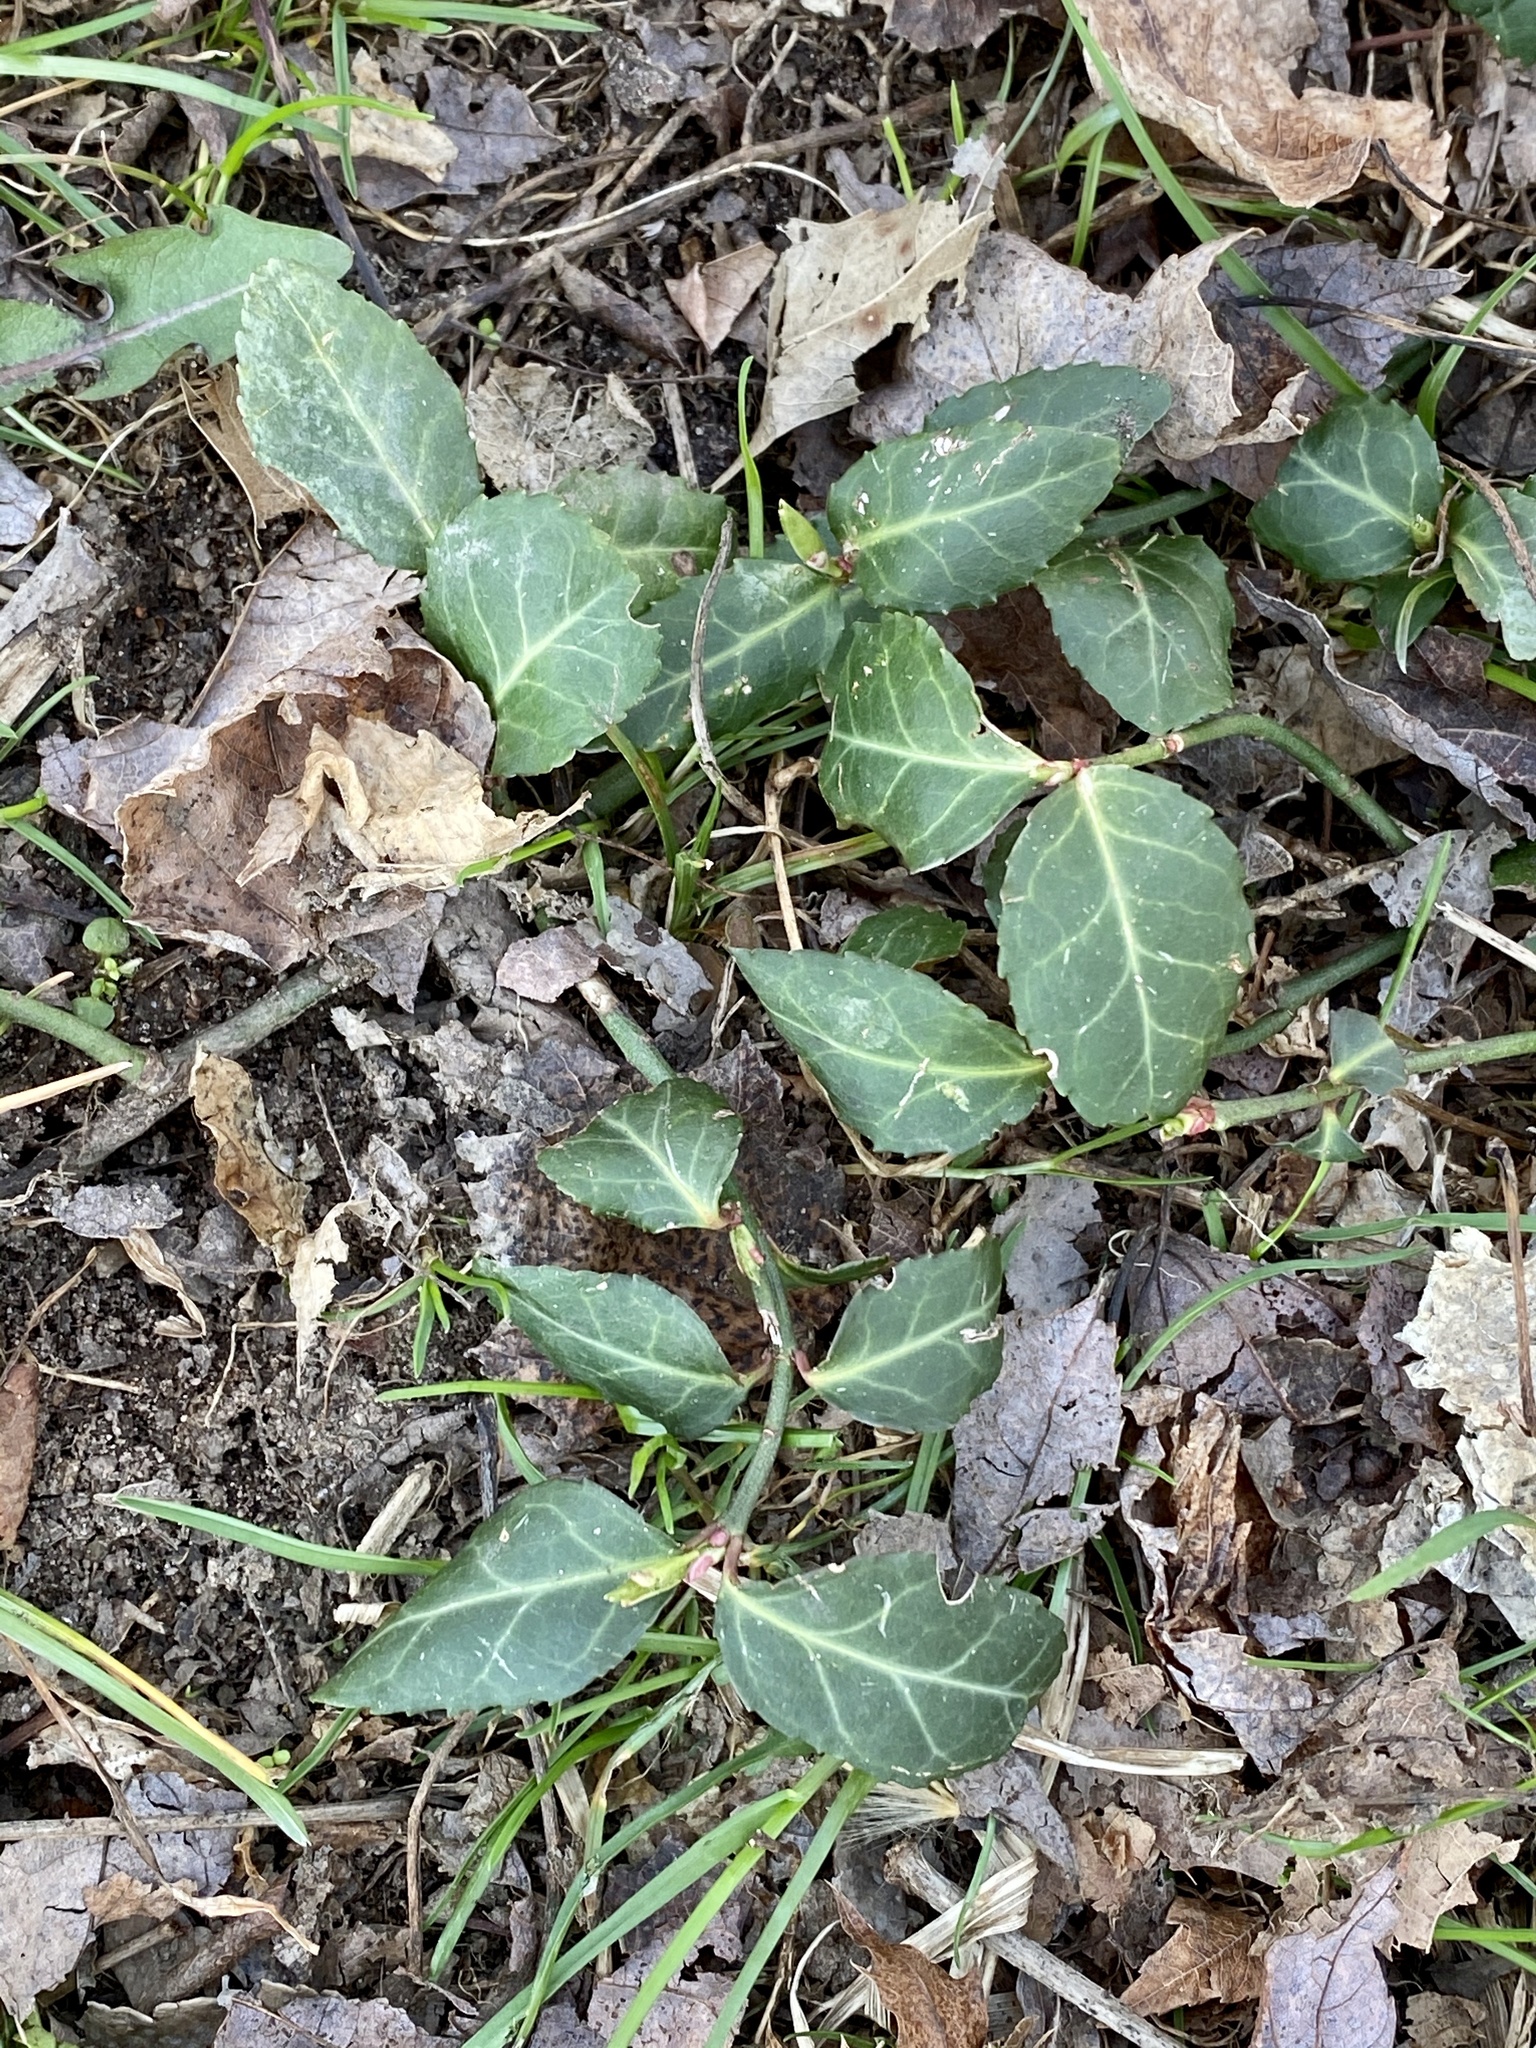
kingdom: Plantae
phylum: Tracheophyta
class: Magnoliopsida
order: Celastrales
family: Celastraceae
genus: Euonymus
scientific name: Euonymus fortunei
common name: Climbing euonymus
